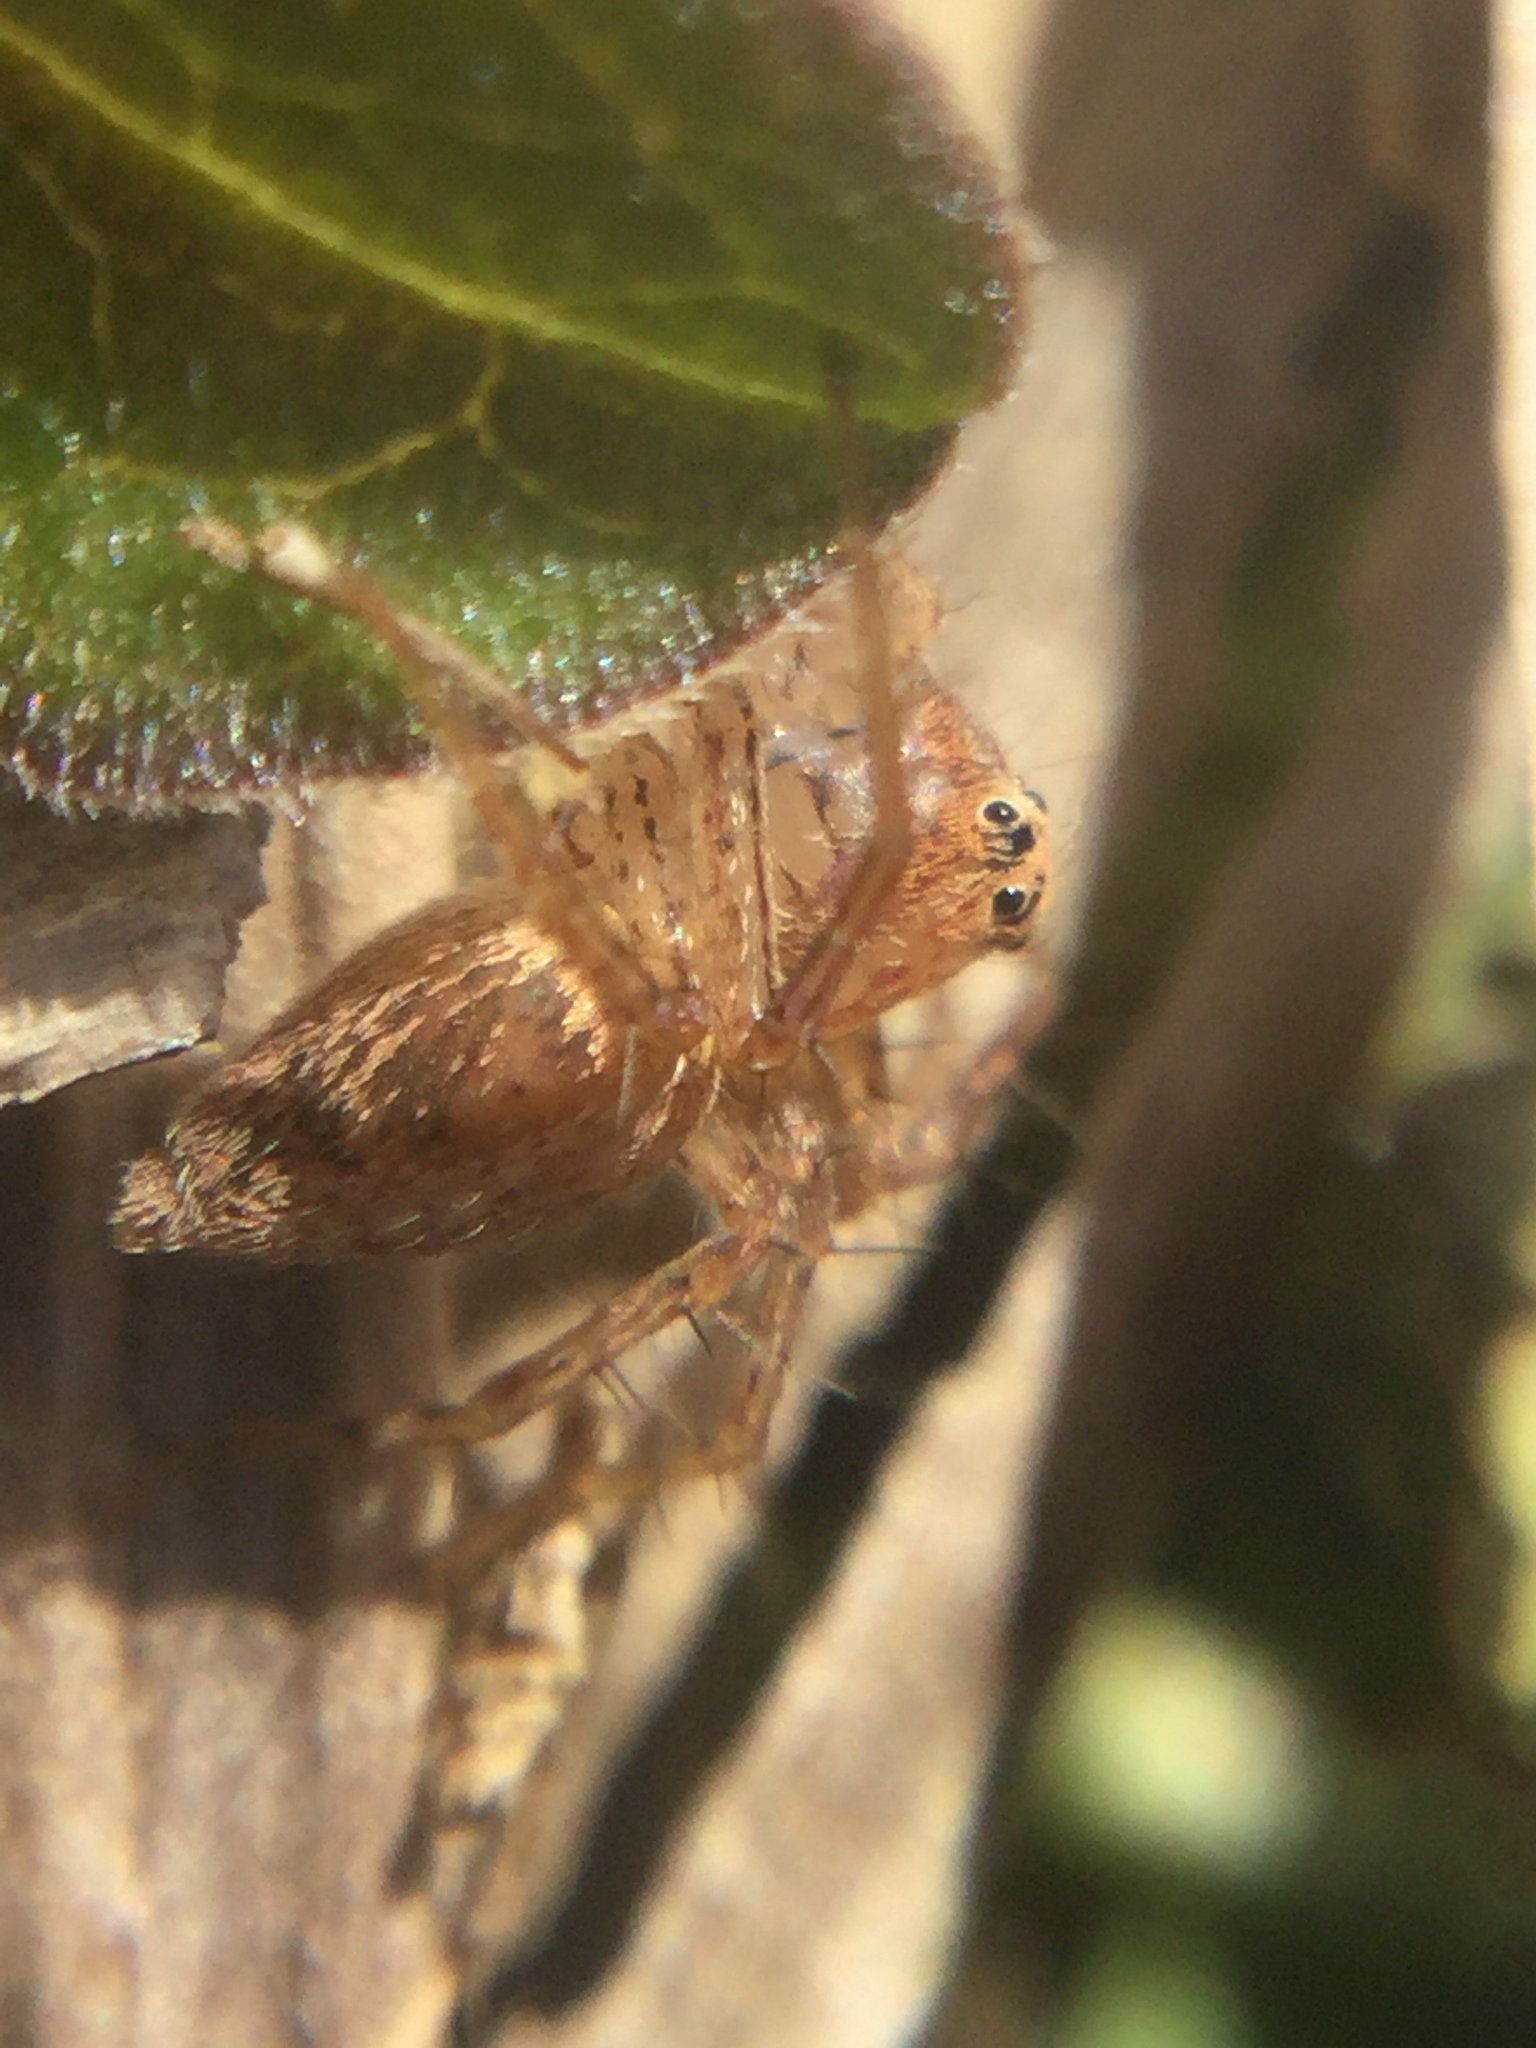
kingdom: Animalia
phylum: Arthropoda
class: Arachnida
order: Araneae
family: Oxyopidae
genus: Oxyopes
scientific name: Oxyopes aglossus
